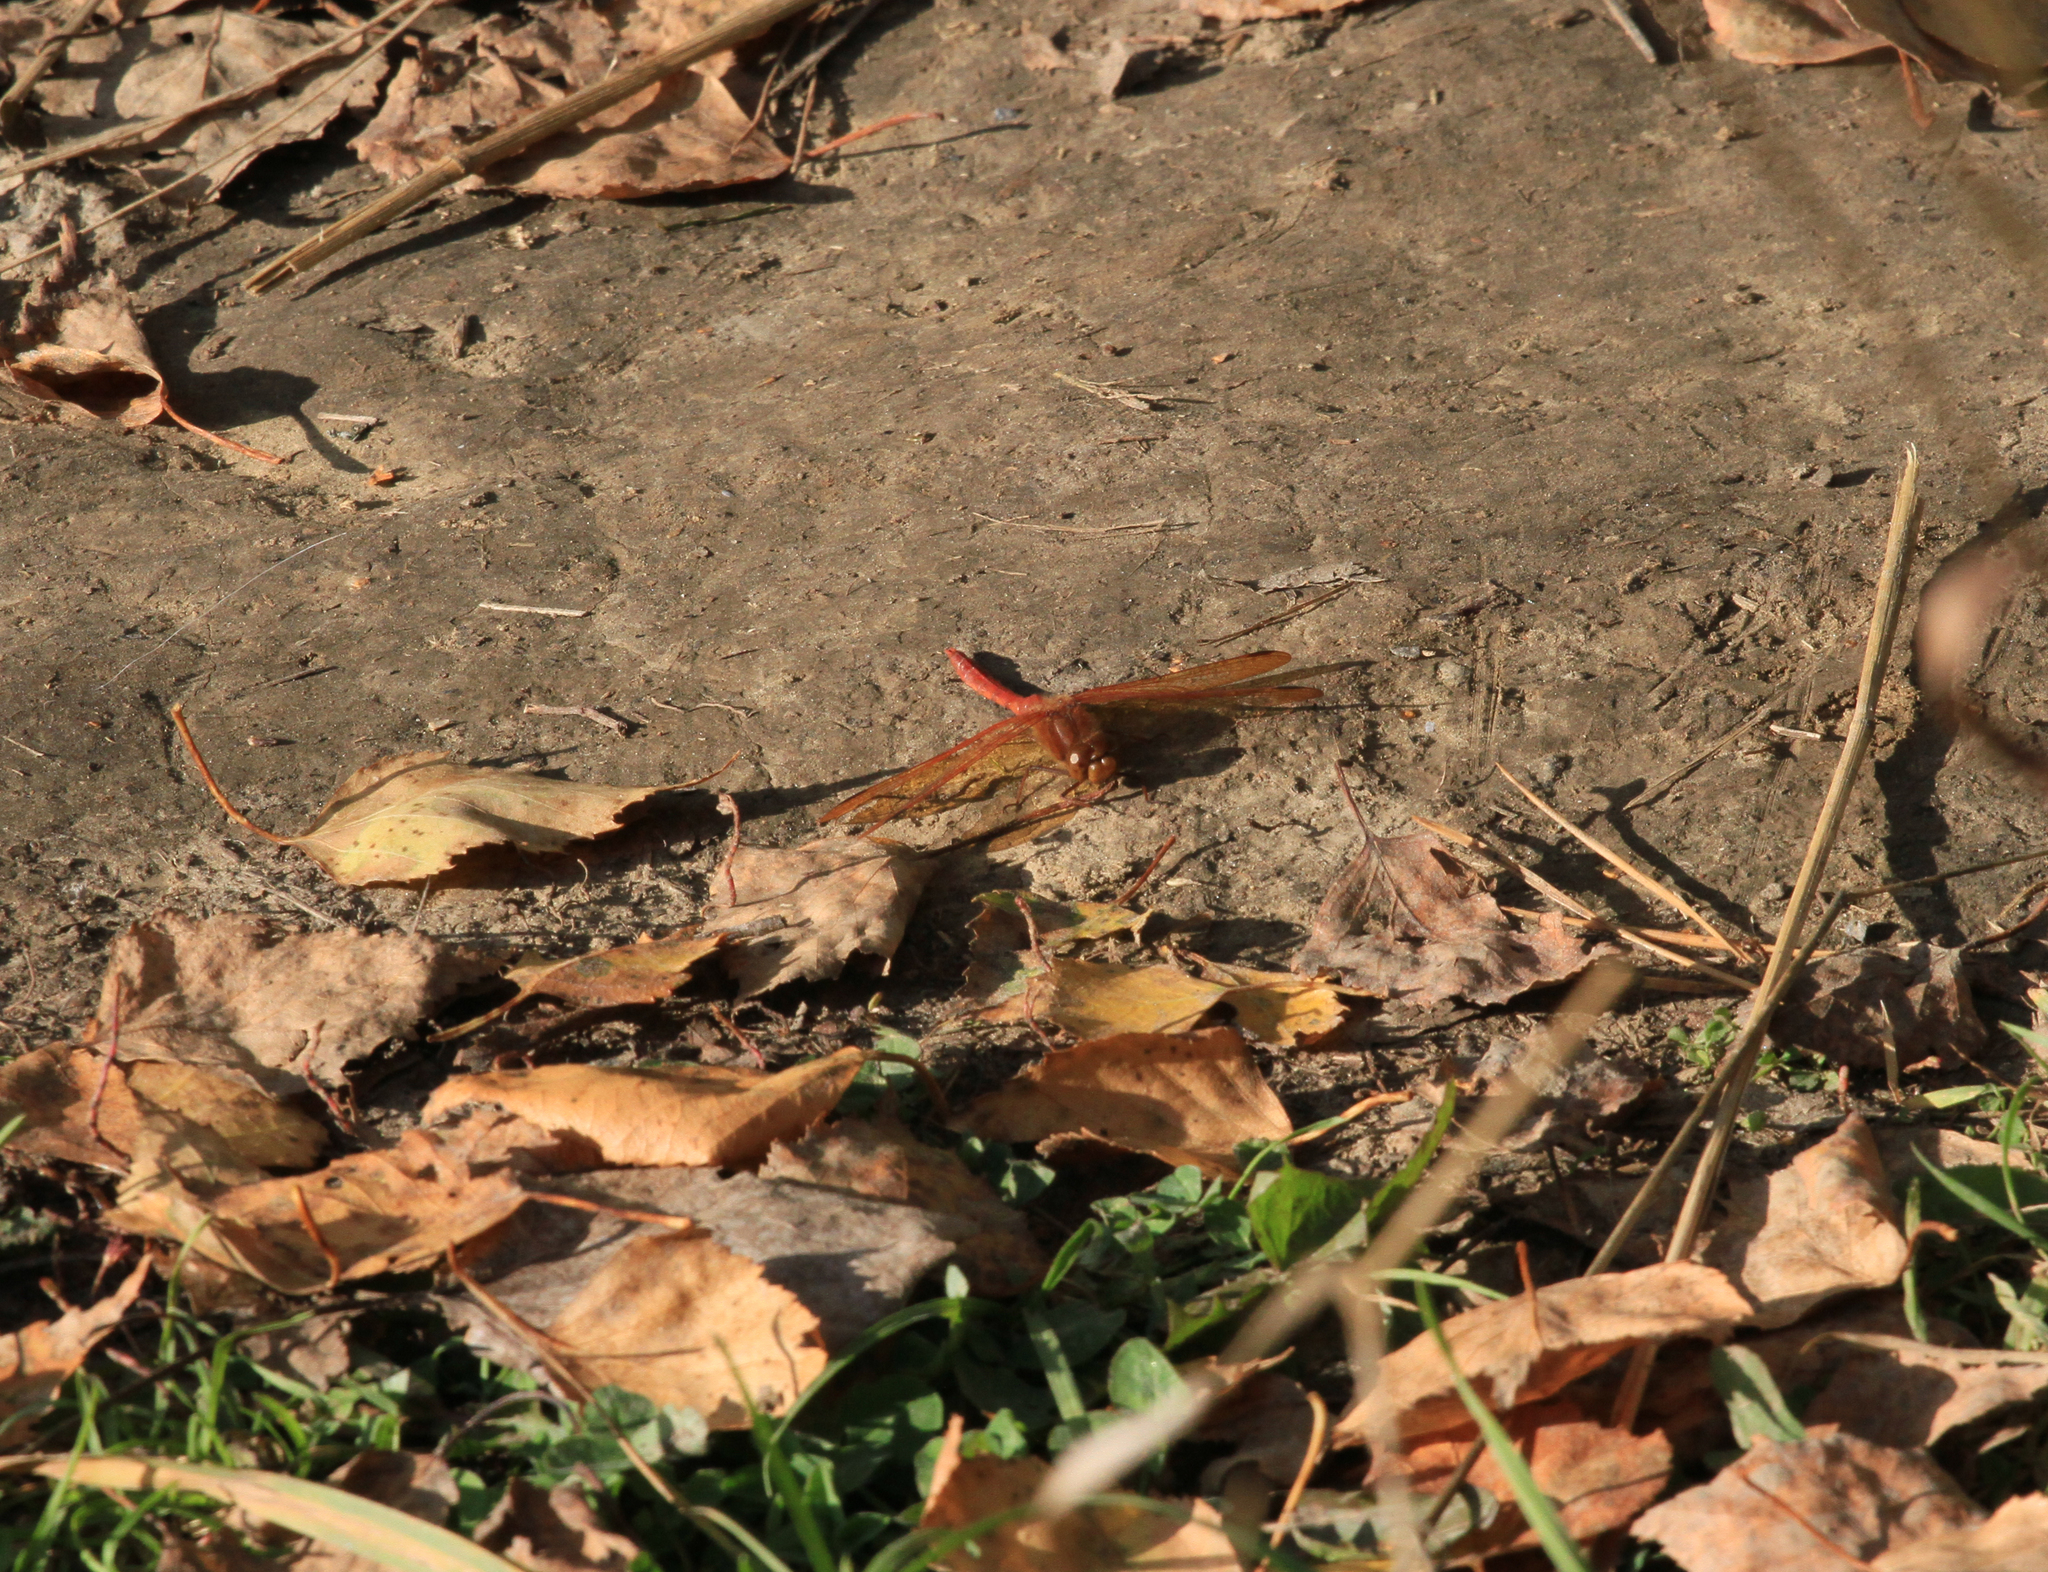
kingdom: Animalia
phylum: Arthropoda
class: Insecta
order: Odonata
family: Libellulidae
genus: Sympetrum
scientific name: Sympetrum croceolum
